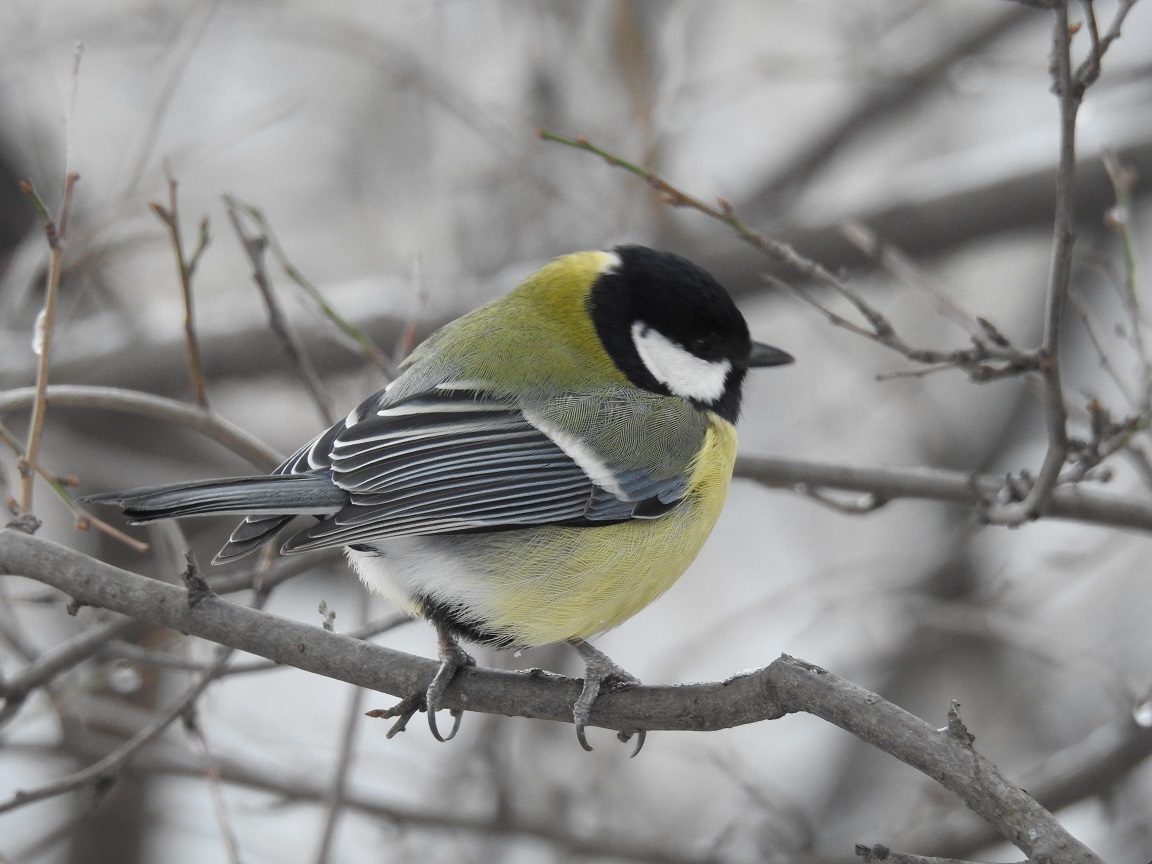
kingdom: Animalia
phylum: Chordata
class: Aves
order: Passeriformes
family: Paridae
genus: Parus
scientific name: Parus major
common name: Great tit
